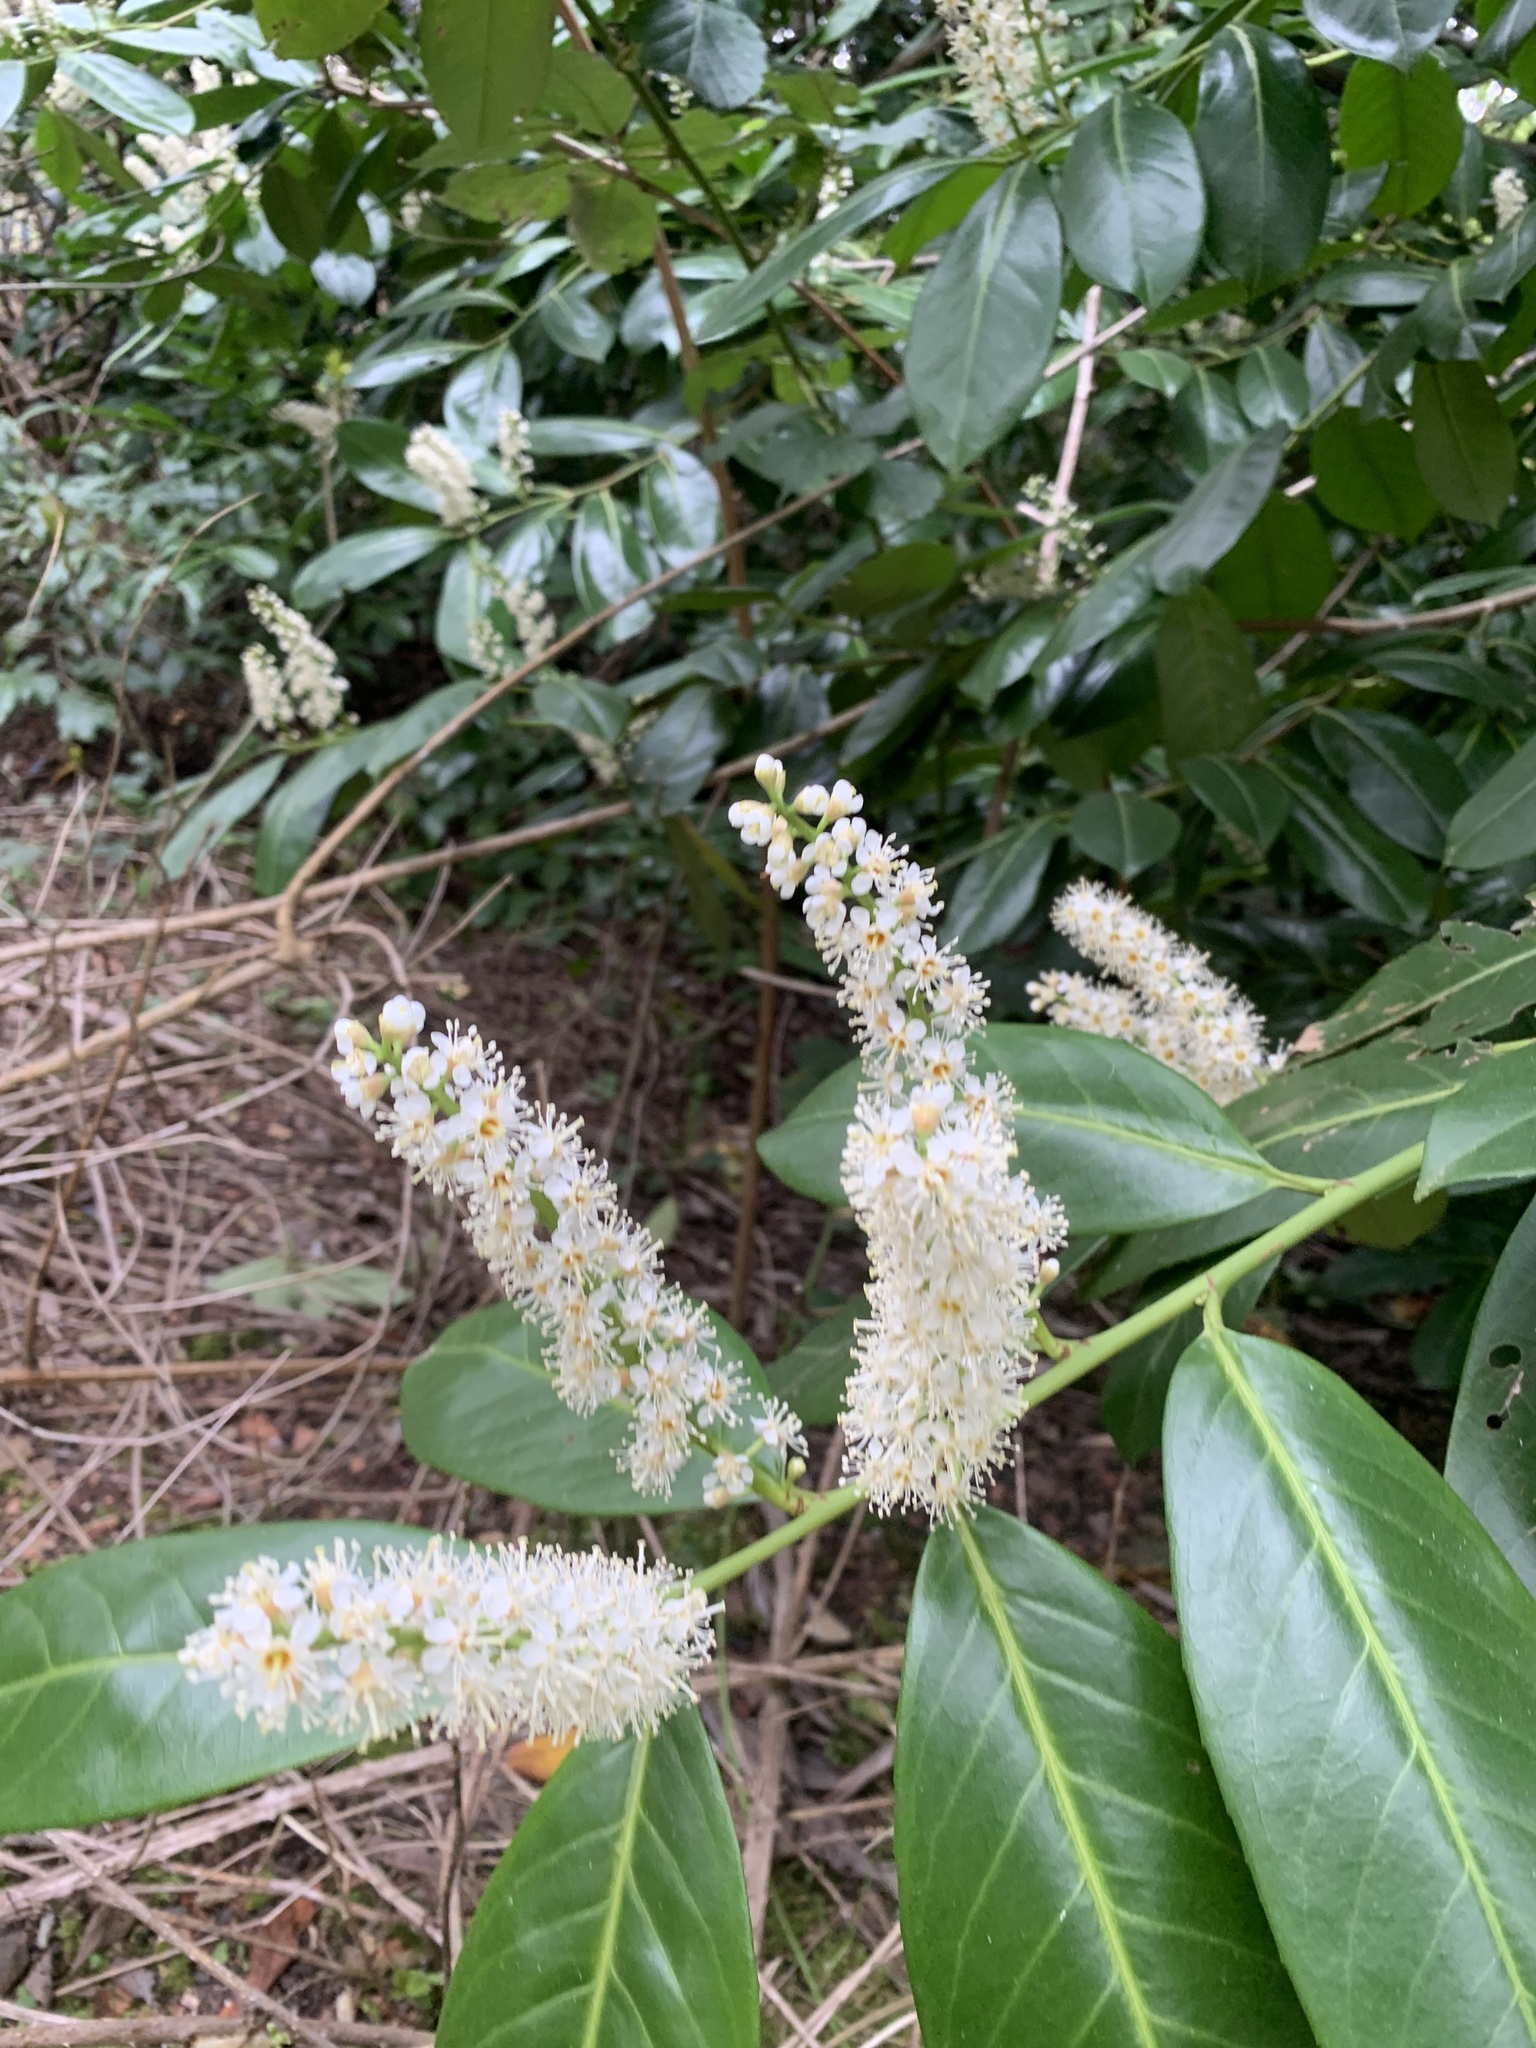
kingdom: Plantae
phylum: Tracheophyta
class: Magnoliopsida
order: Rosales
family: Rosaceae
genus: Prunus
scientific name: Prunus laurocerasus
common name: Cherry laurel
